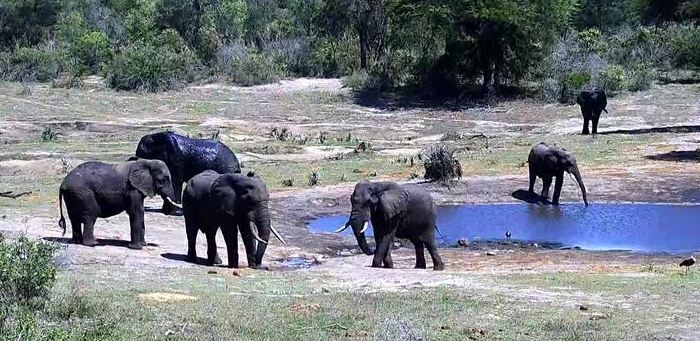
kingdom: Animalia
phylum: Chordata
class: Mammalia
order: Proboscidea
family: Elephantidae
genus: Loxodonta
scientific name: Loxodonta africana
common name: African elephant
